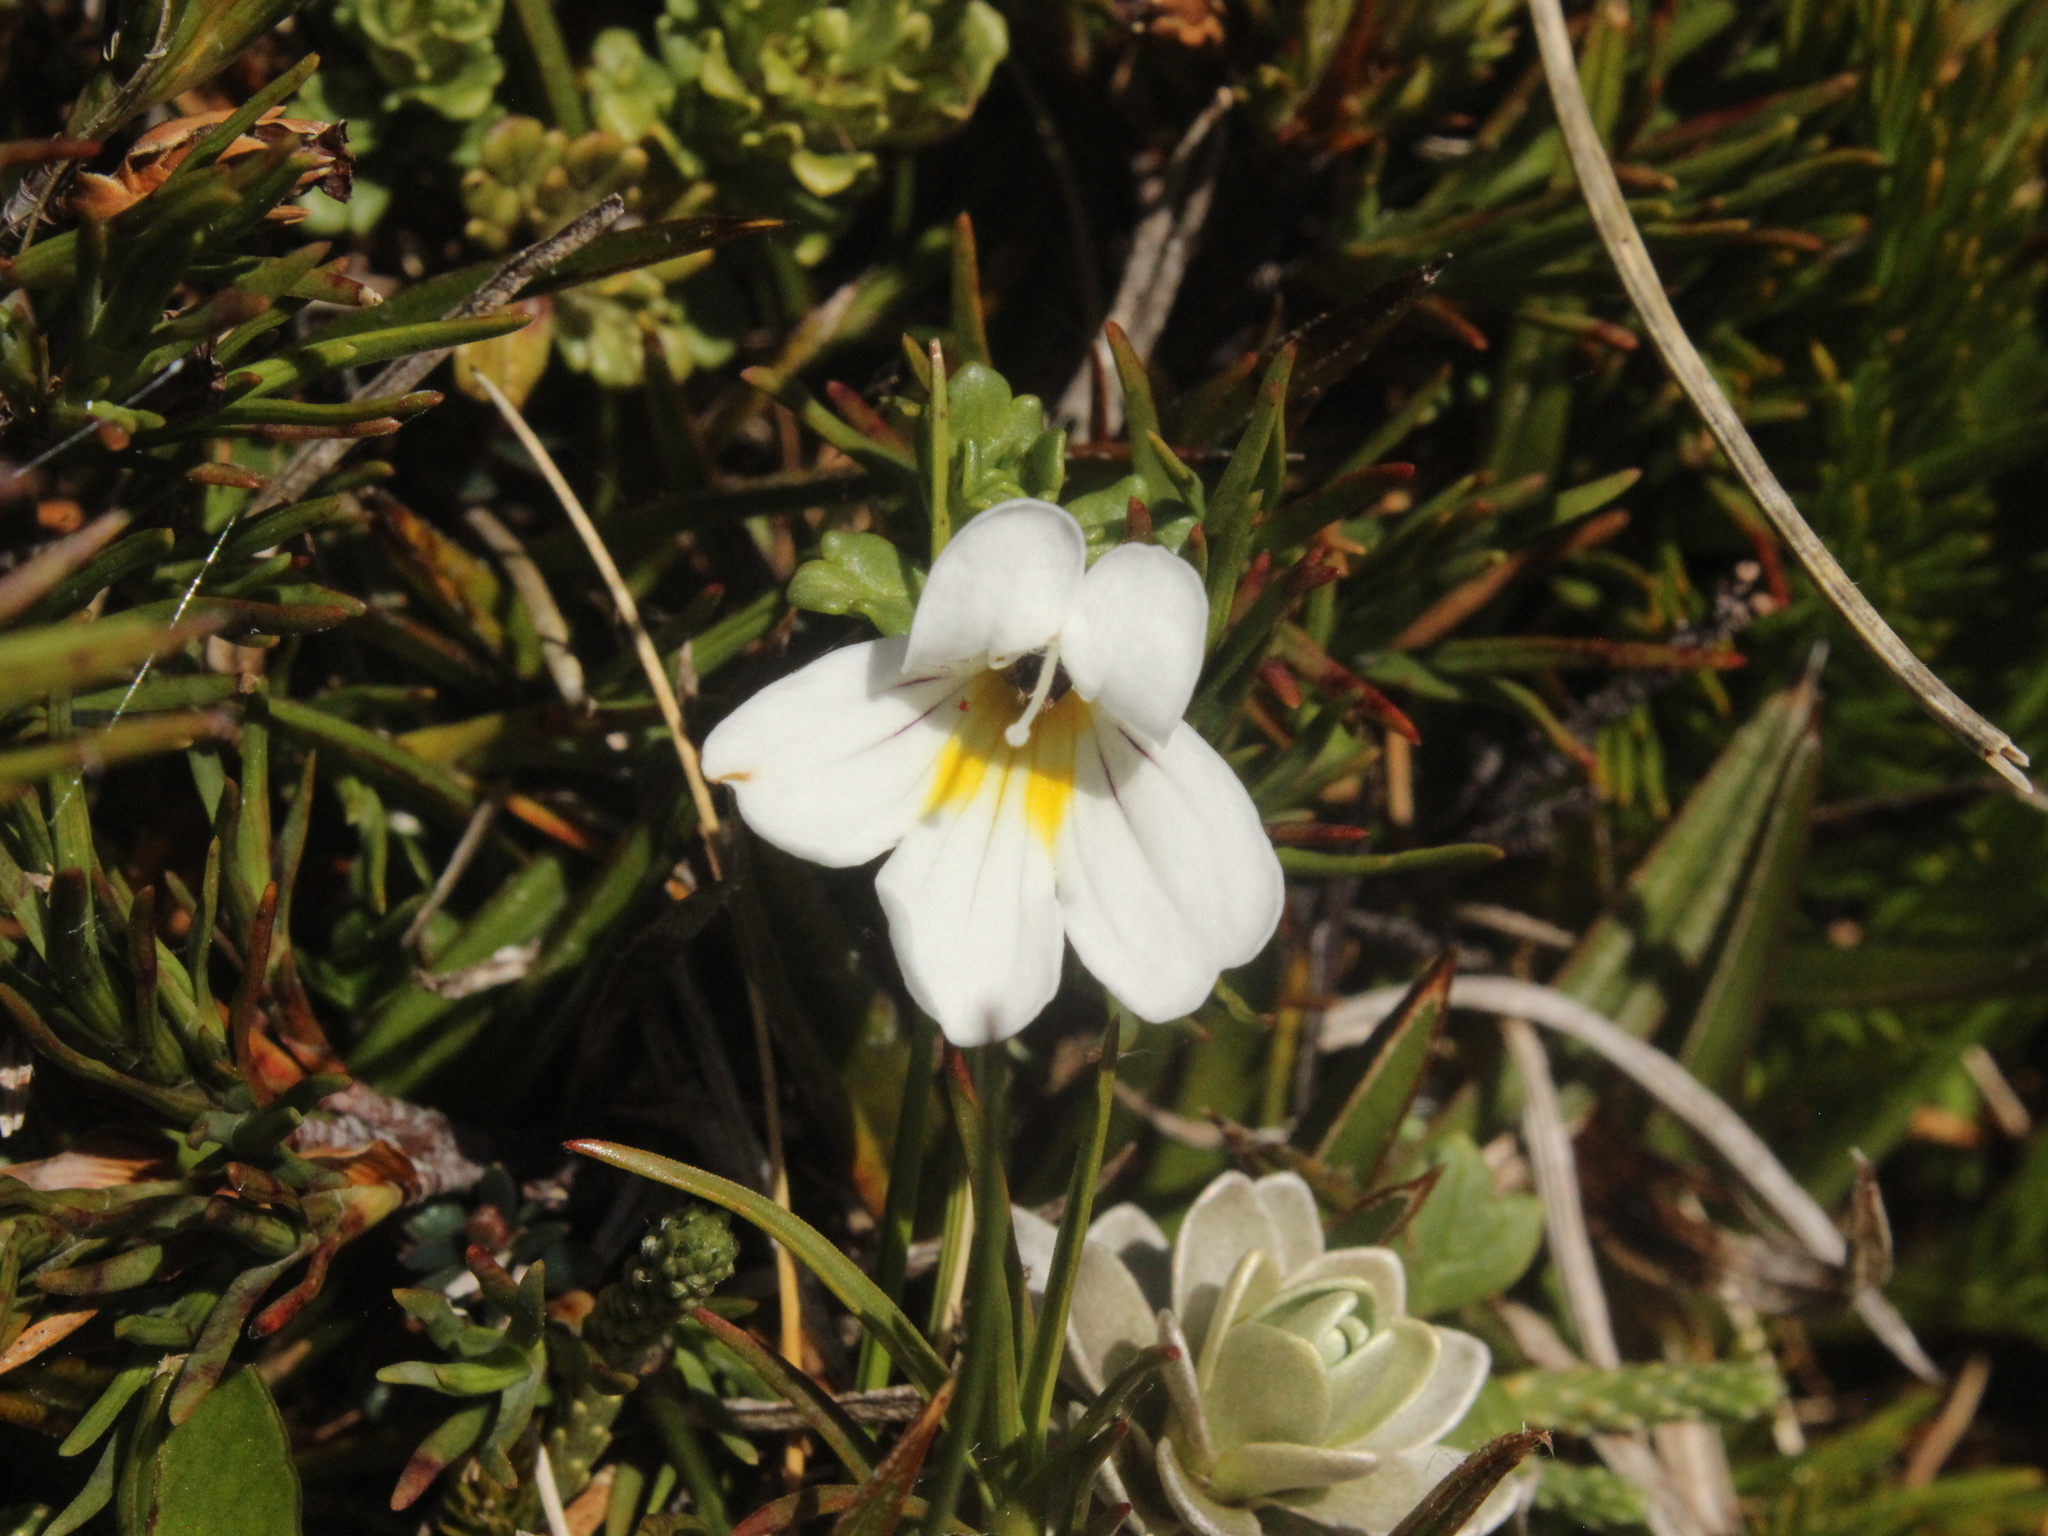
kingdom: Plantae
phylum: Tracheophyta
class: Magnoliopsida
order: Lamiales
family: Orobanchaceae
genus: Euphrasia
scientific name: Euphrasia cuneata
